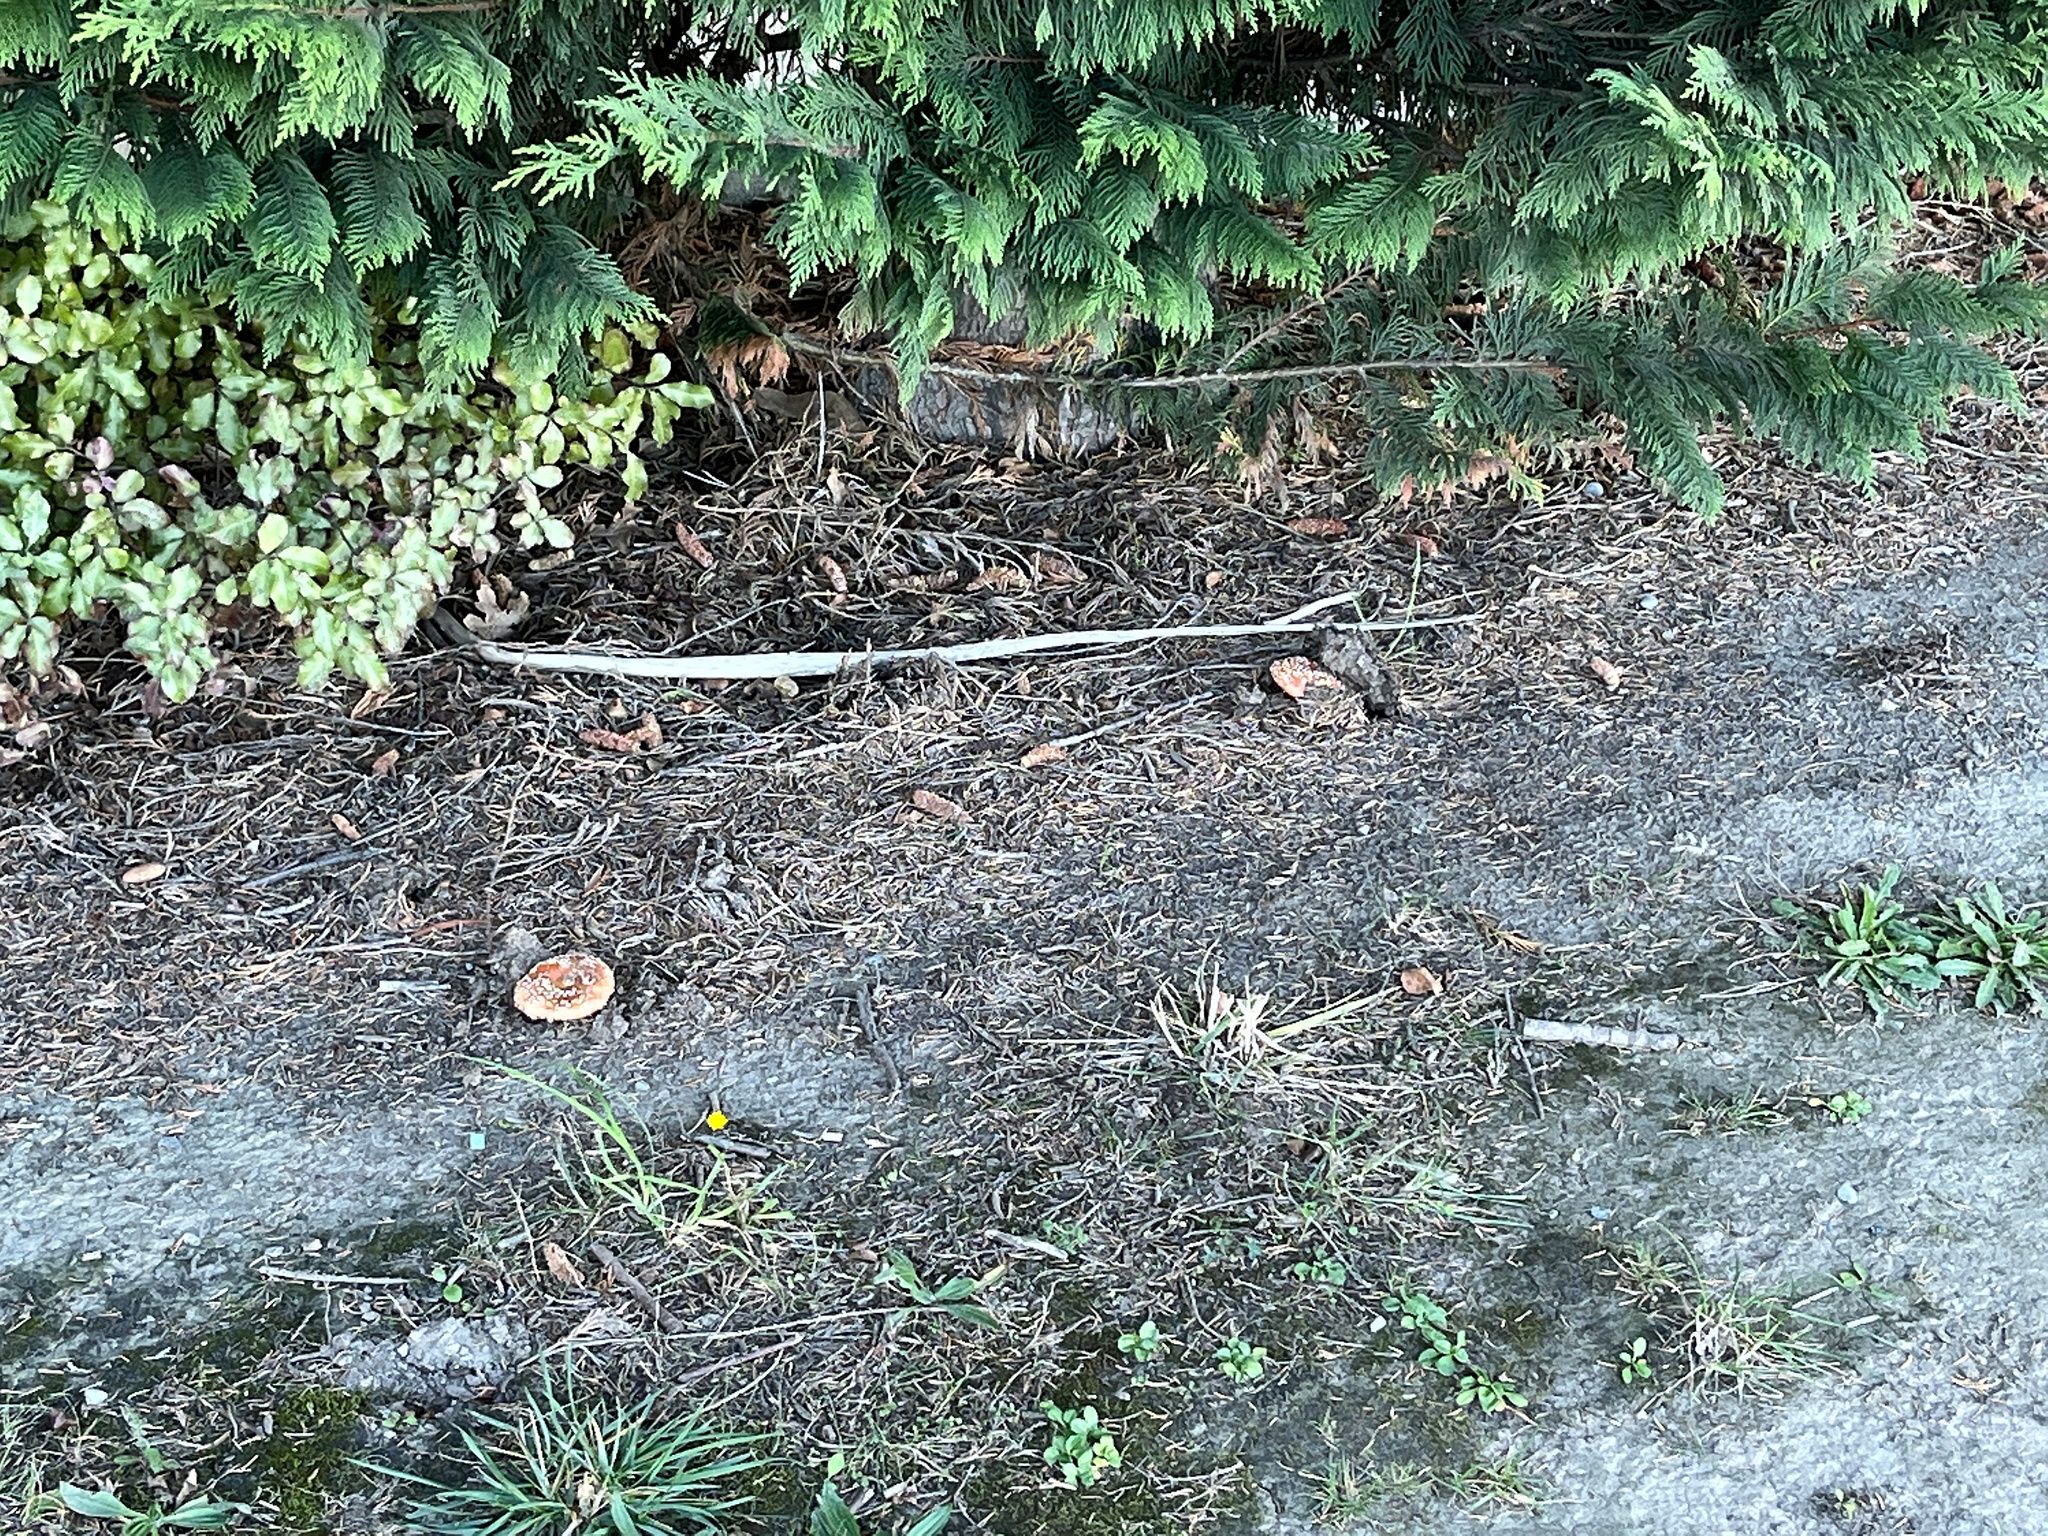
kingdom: Fungi
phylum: Basidiomycota
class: Agaricomycetes
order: Agaricales
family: Amanitaceae
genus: Amanita
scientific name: Amanita muscaria
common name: Fly agaric
